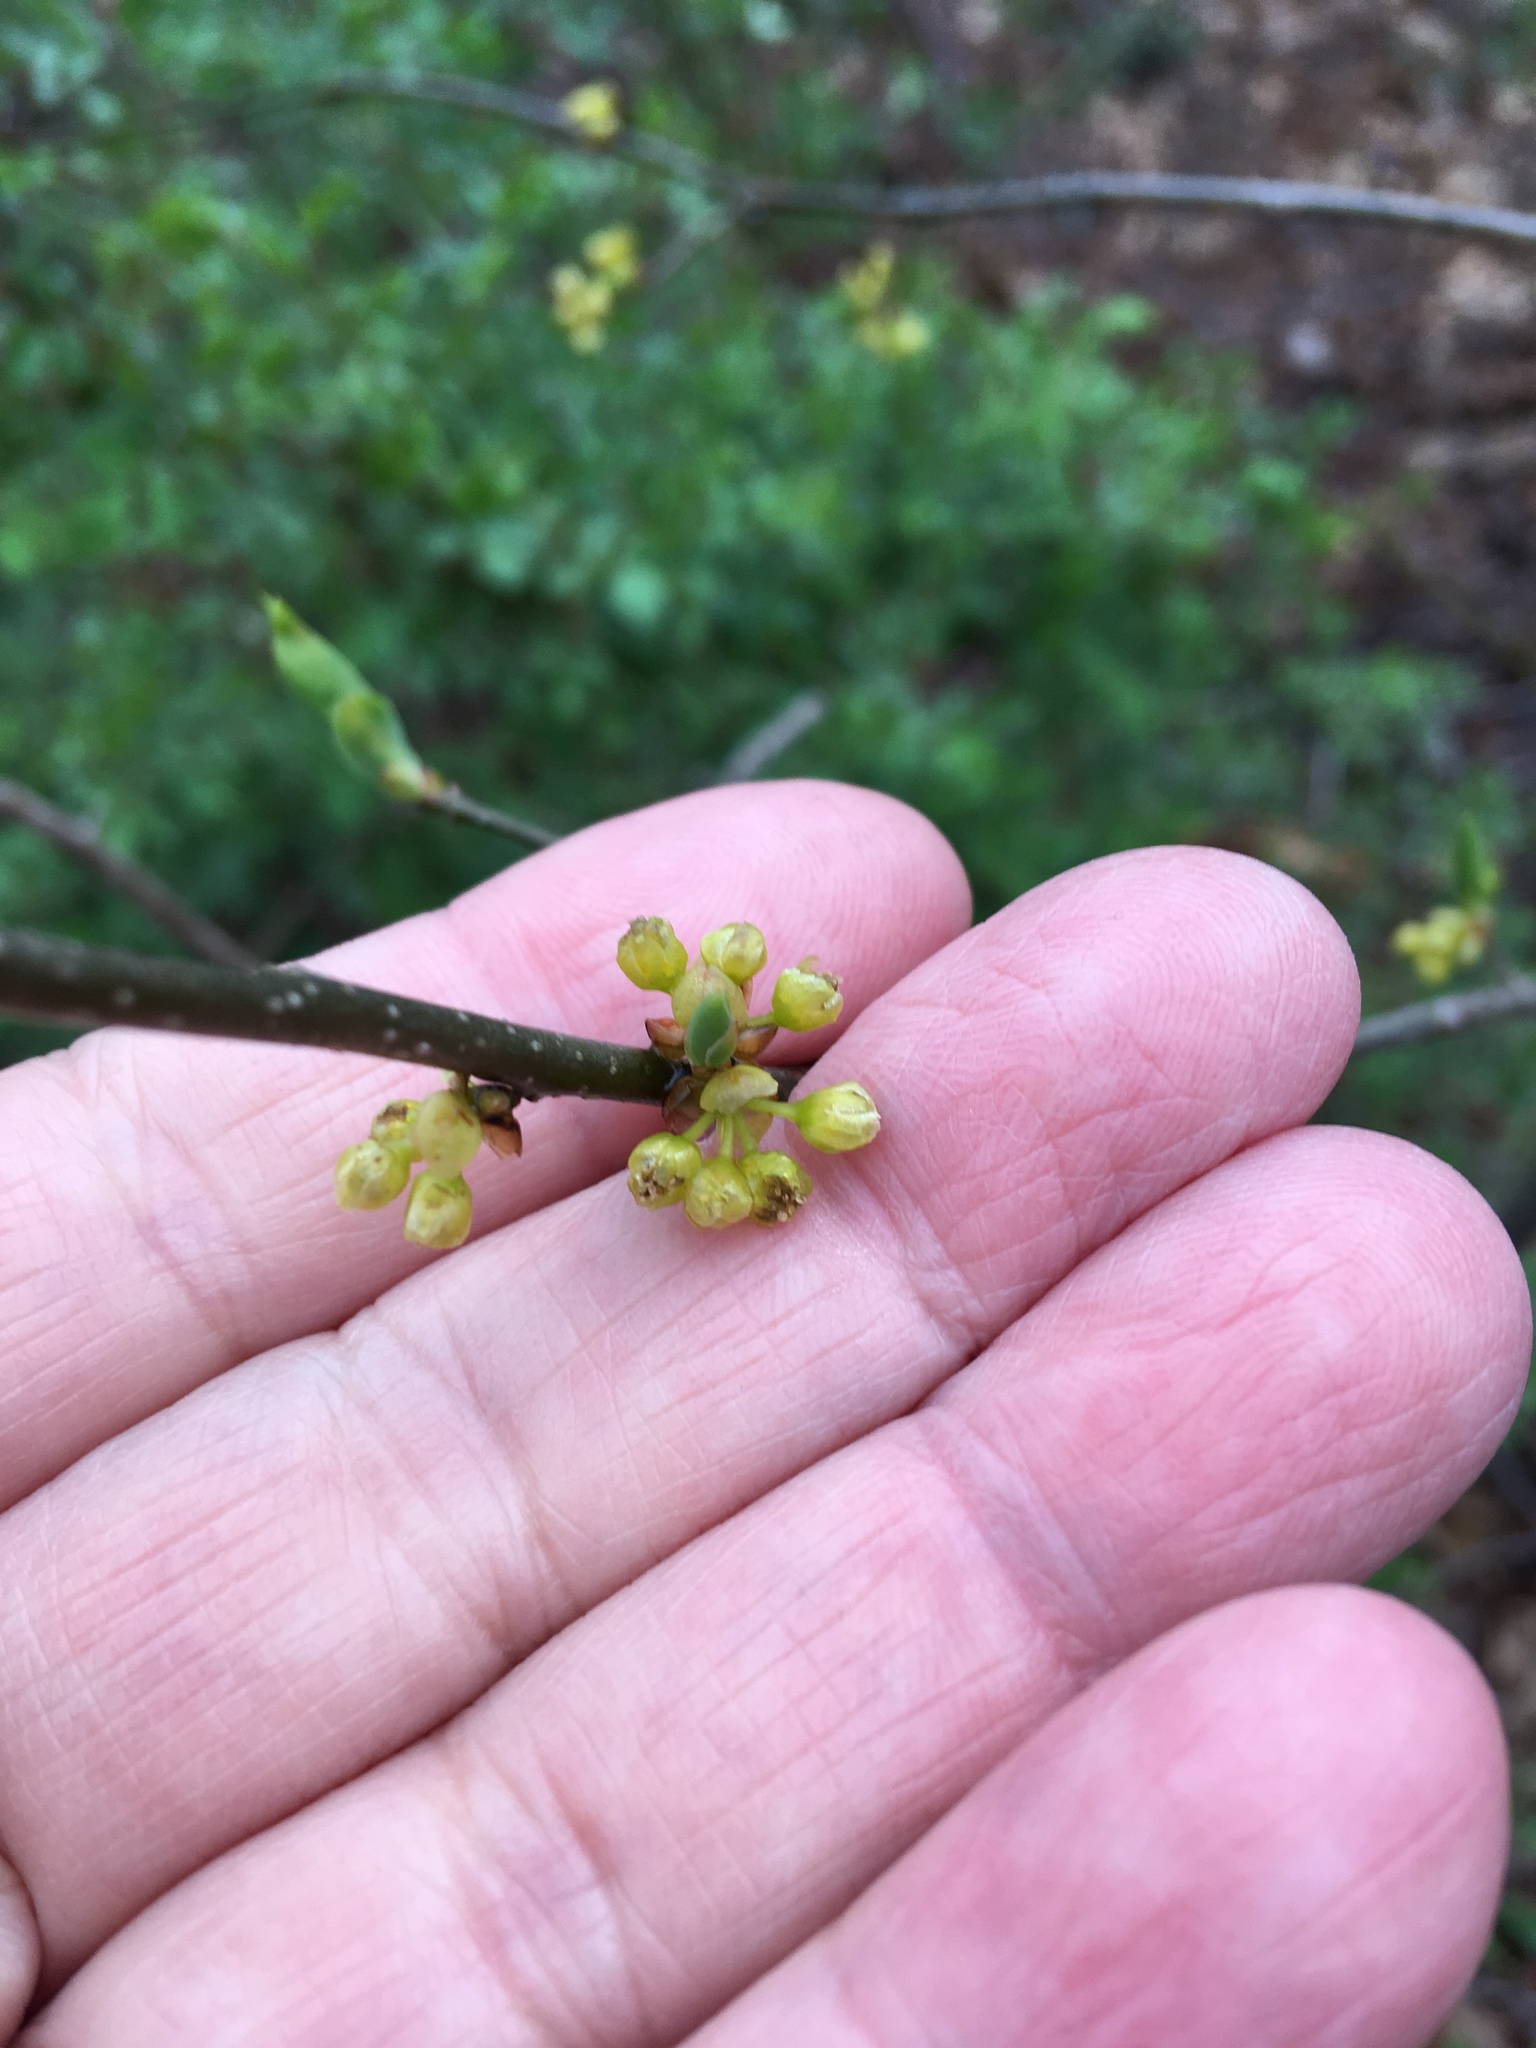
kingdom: Plantae
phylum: Tracheophyta
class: Magnoliopsida
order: Laurales
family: Lauraceae
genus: Lindera
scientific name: Lindera benzoin
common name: Spicebush
